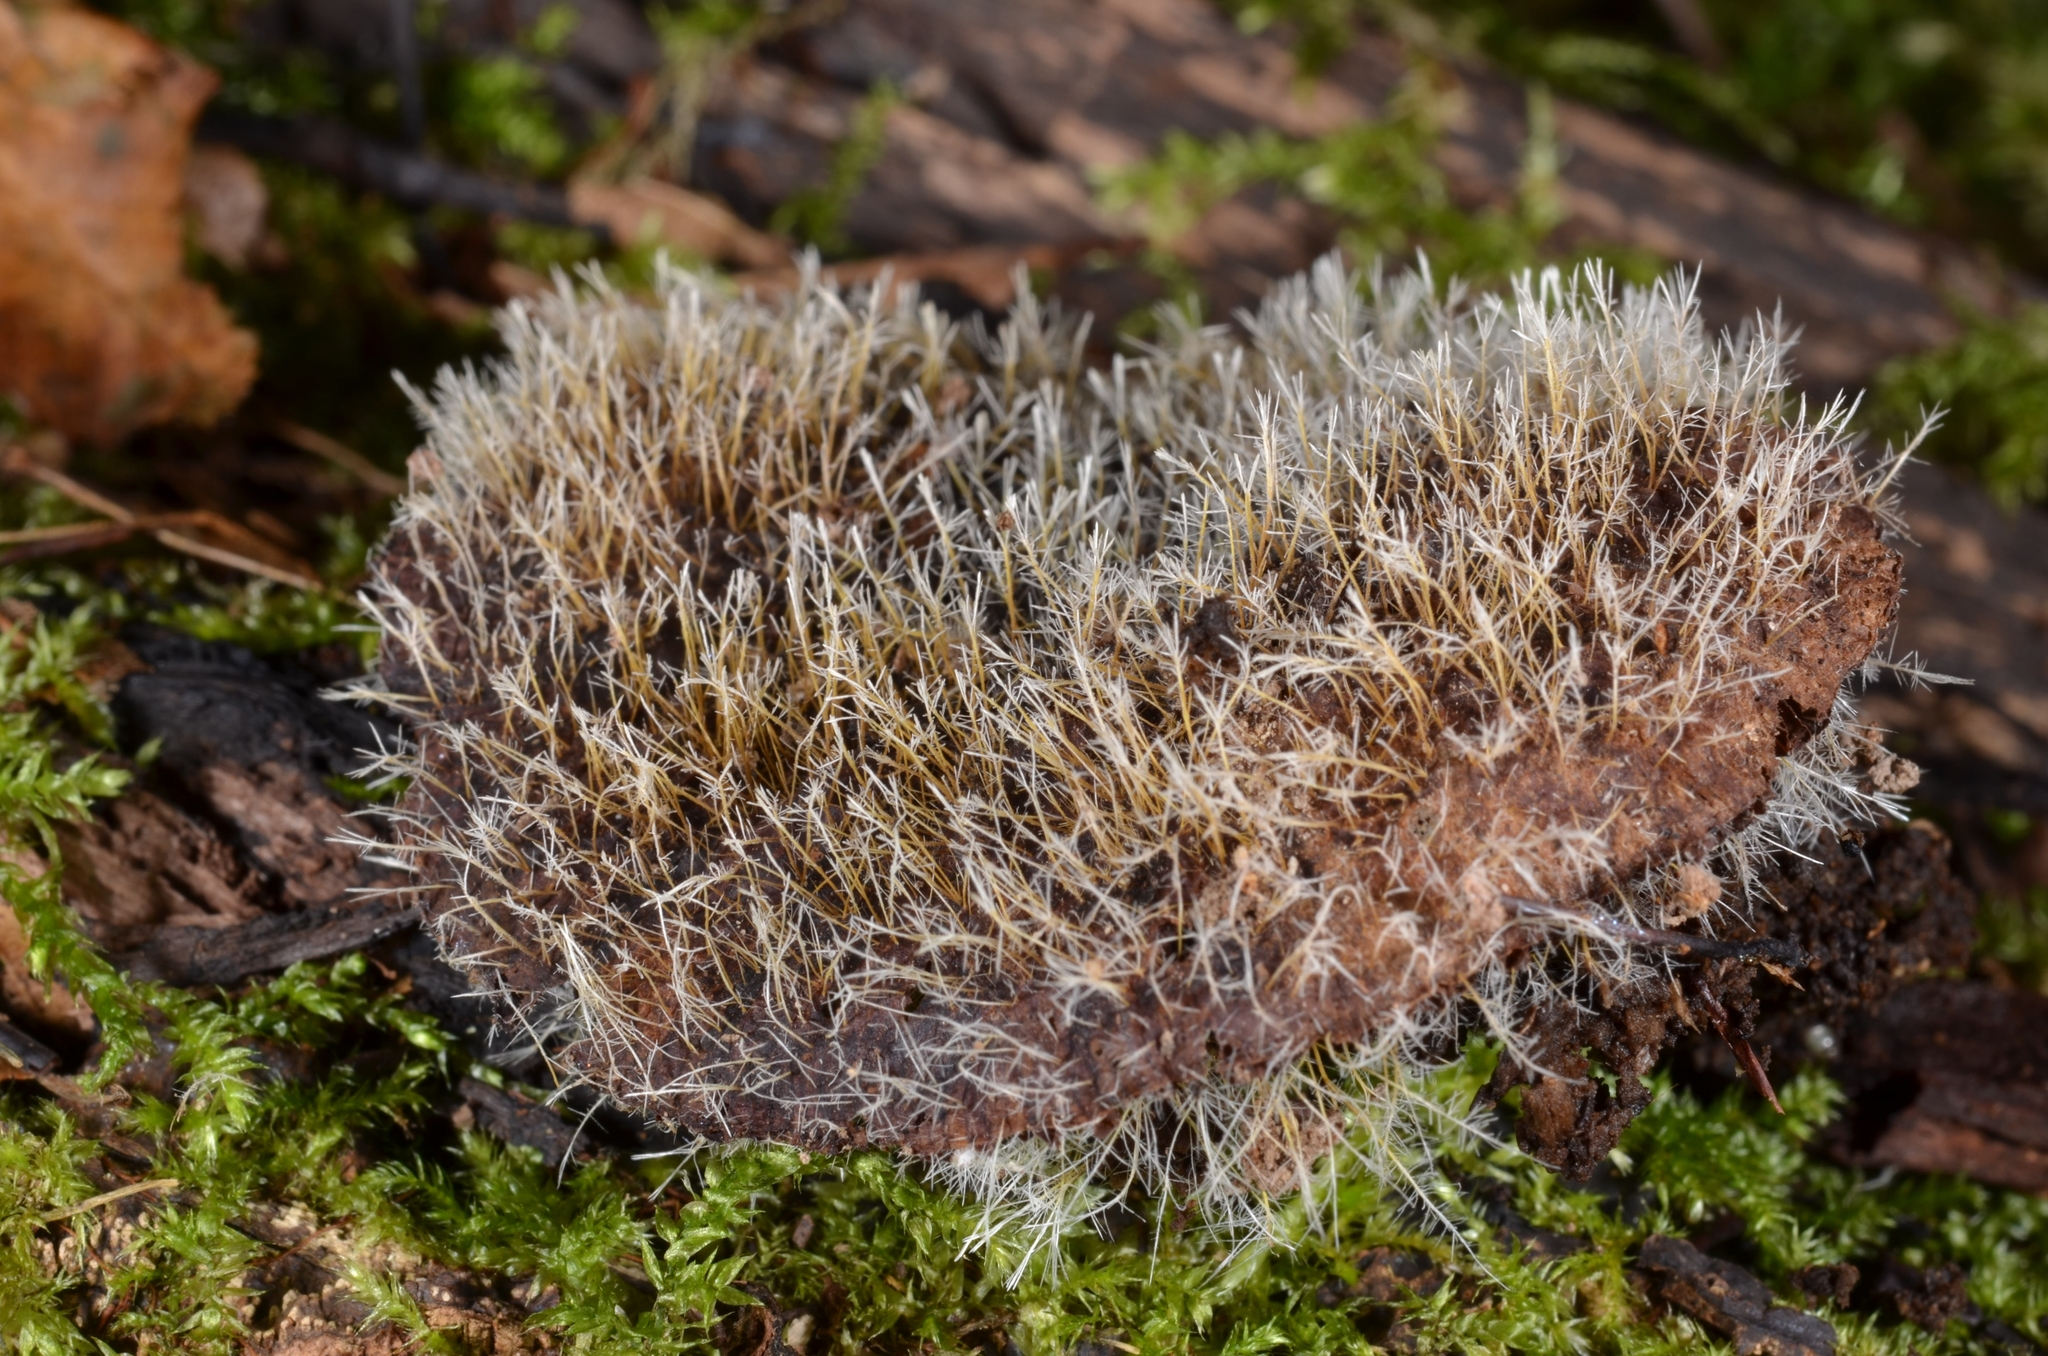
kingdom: Fungi
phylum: Ascomycota
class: Sordariomycetes
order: Hypocreales
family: Tilachlidiaceae
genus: Tilachlidium
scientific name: Tilachlidium brachiatum
